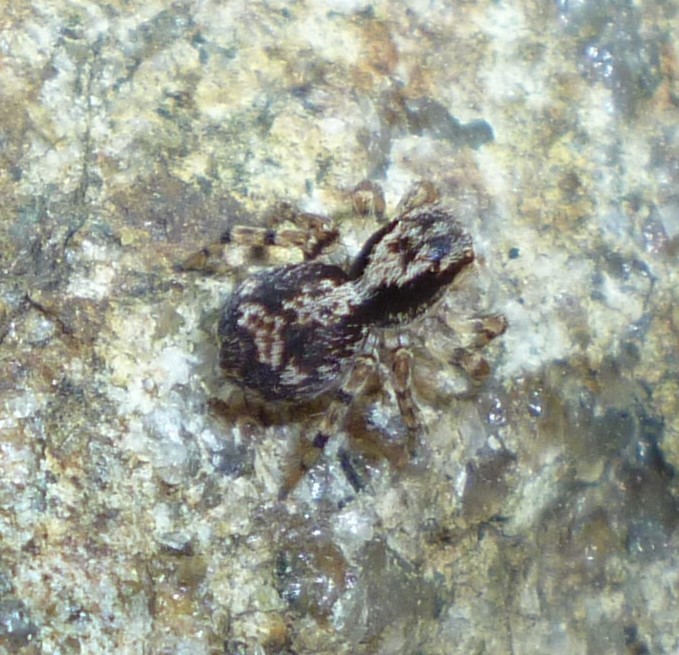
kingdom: Animalia
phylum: Arthropoda
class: Arachnida
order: Araneae
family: Salticidae
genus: Naphrys
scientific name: Naphrys pulex
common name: Flea jumping spider
